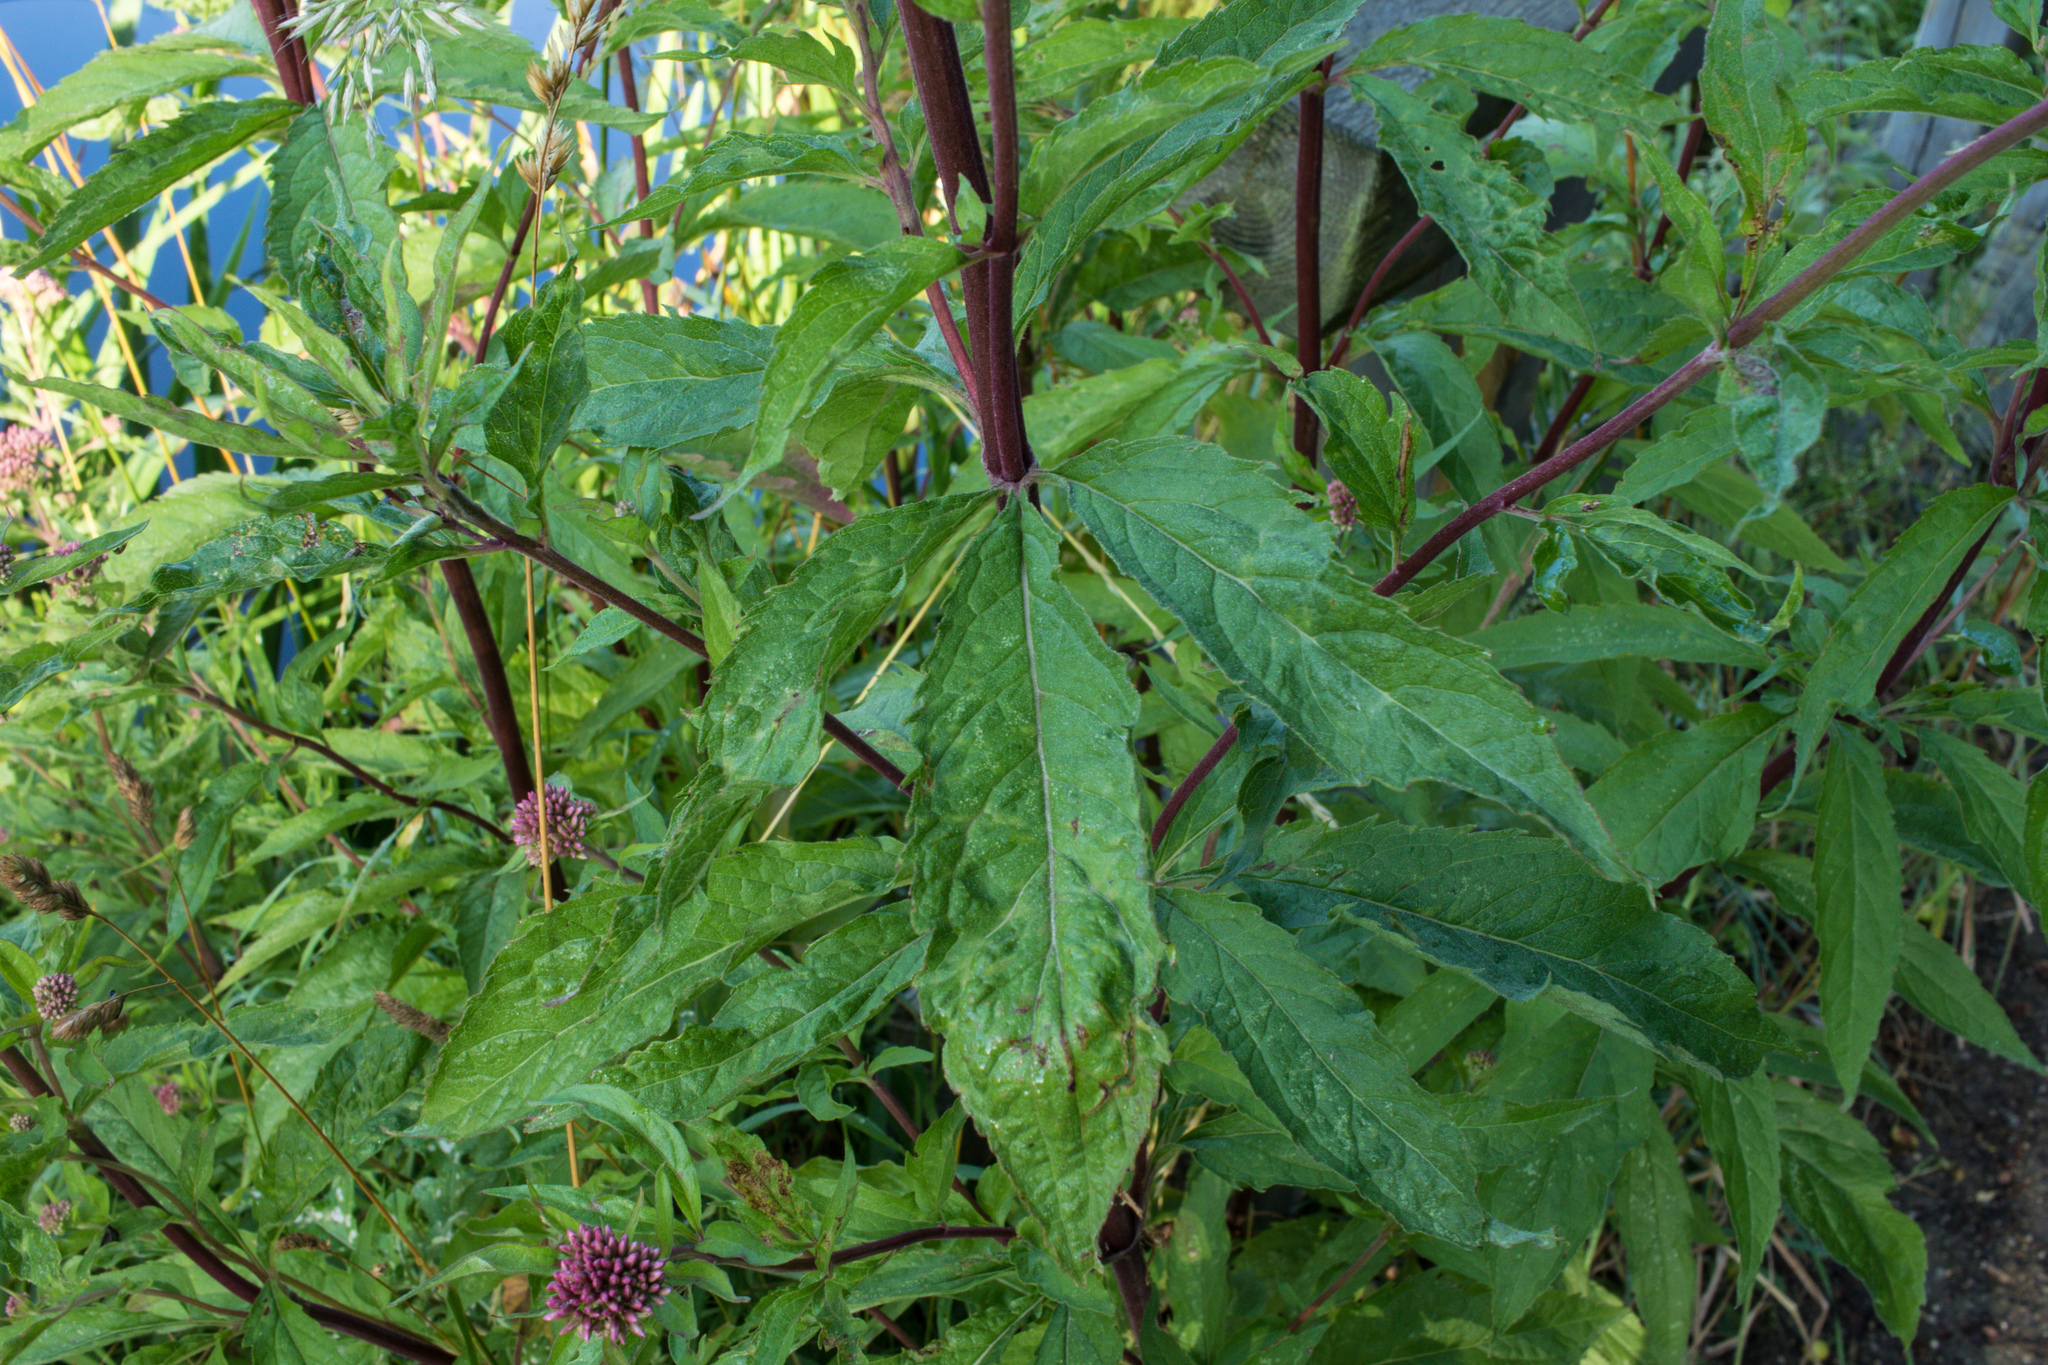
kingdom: Plantae
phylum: Tracheophyta
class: Magnoliopsida
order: Asterales
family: Asteraceae
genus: Eupatorium
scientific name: Eupatorium cannabinum
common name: Hemp-agrimony
